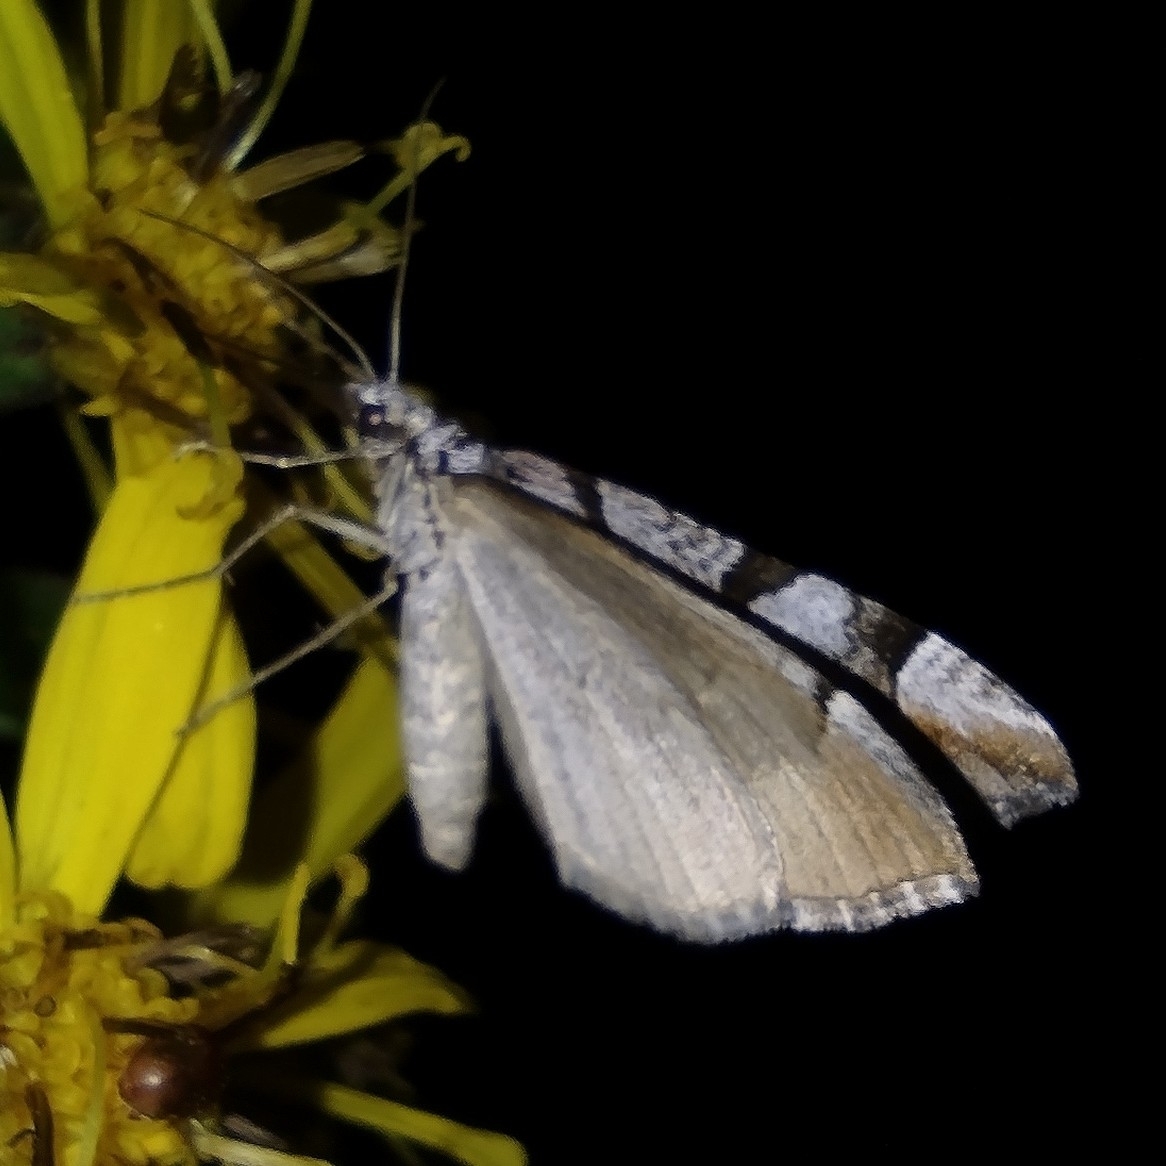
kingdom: Animalia
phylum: Arthropoda
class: Insecta
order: Lepidoptera
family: Geometridae
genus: Aplocera
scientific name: Aplocera praeformata
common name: Purple treble-bar
